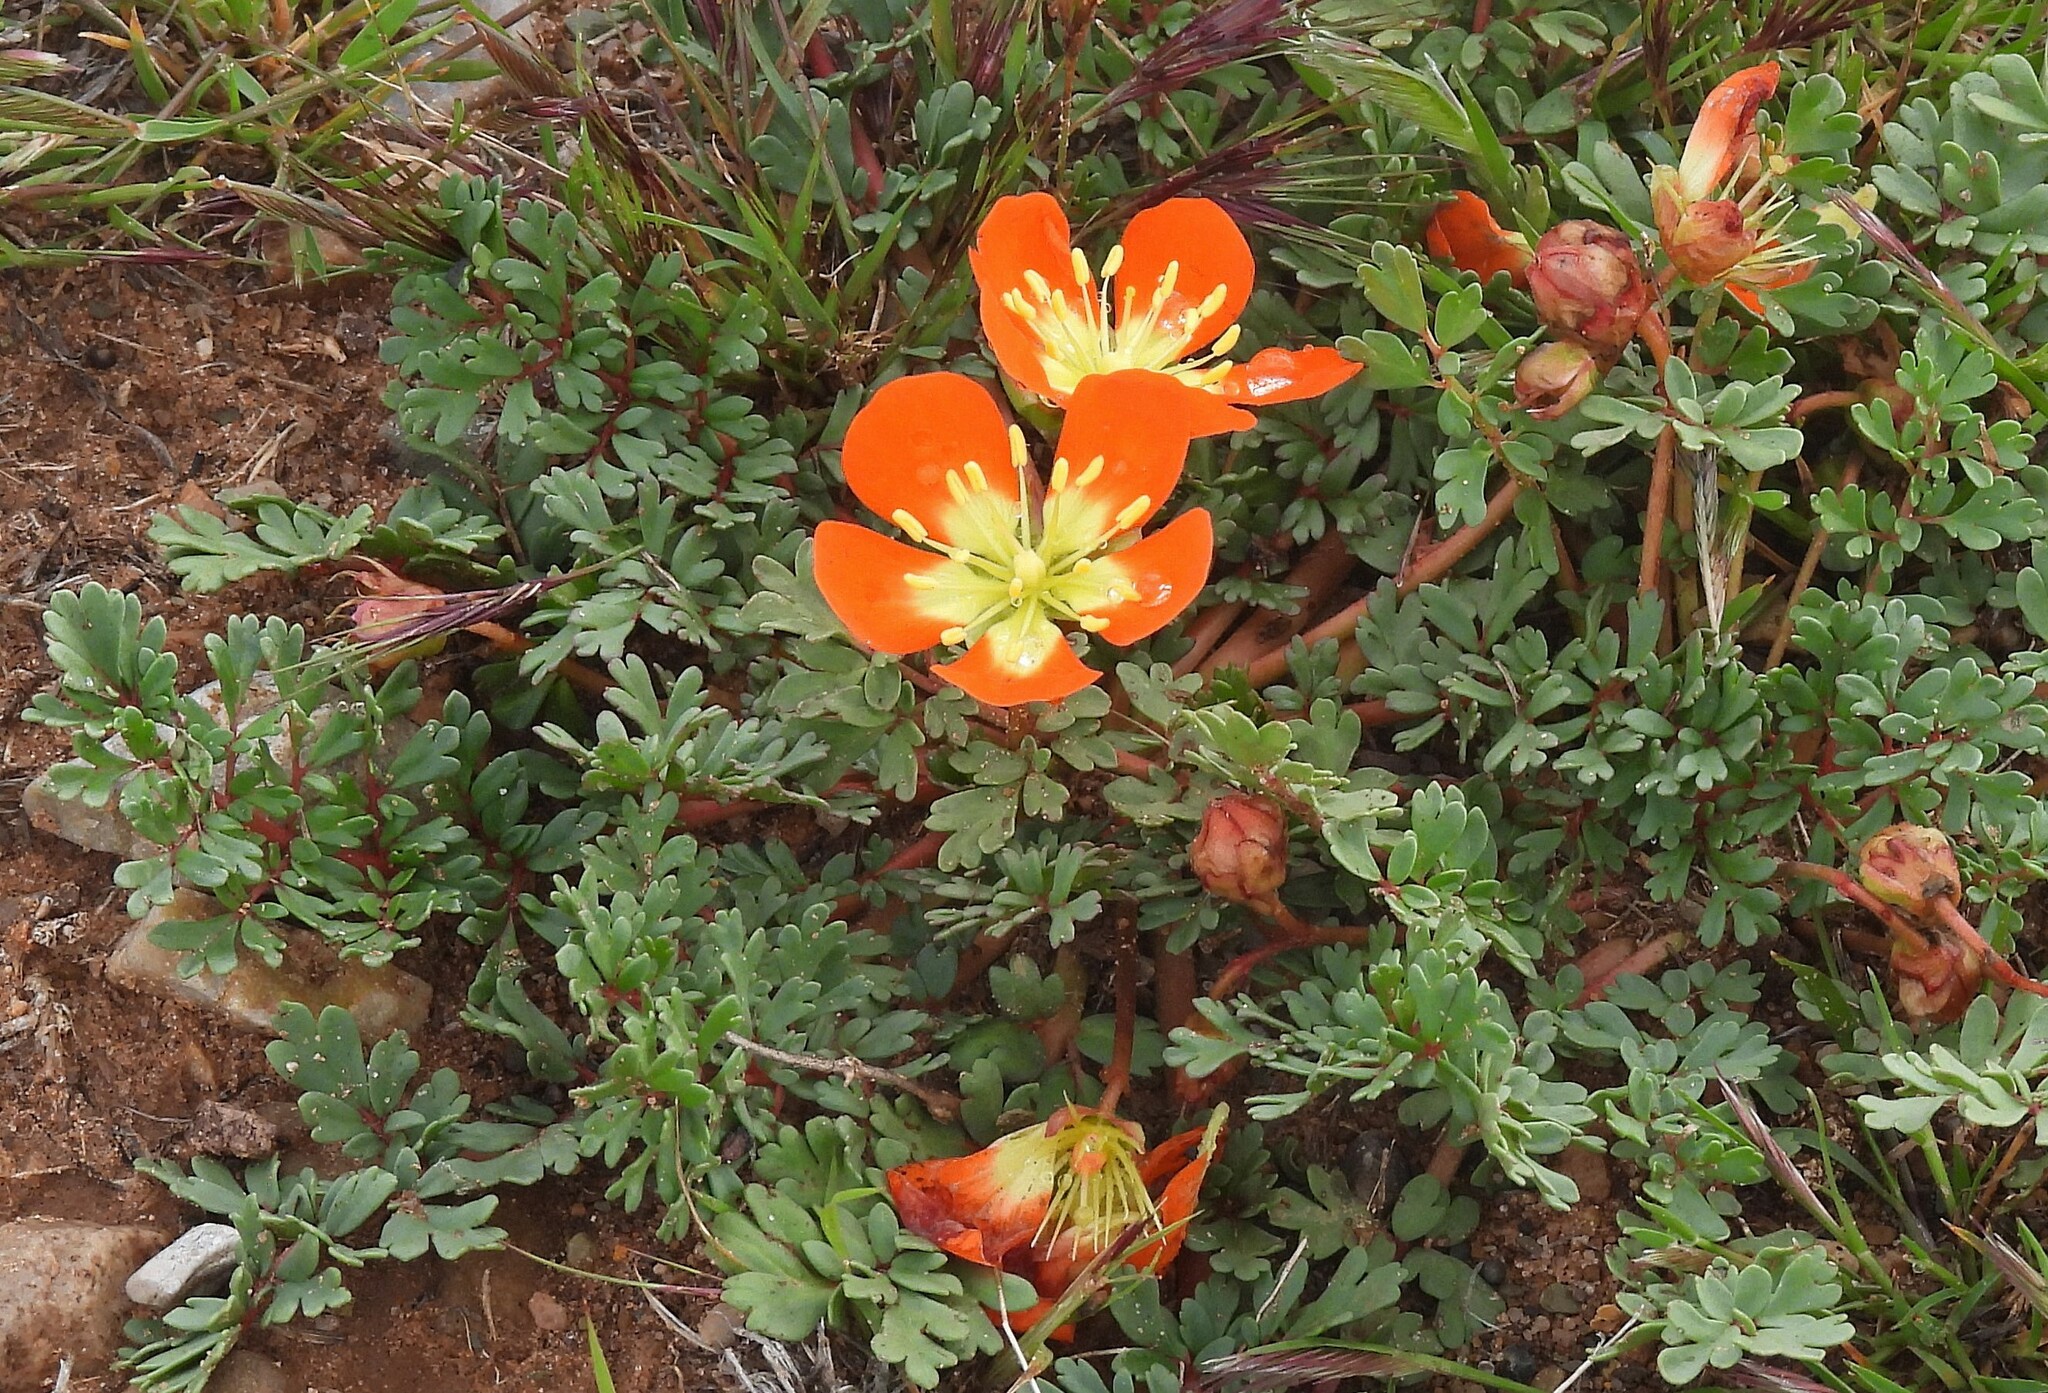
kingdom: Plantae
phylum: Tracheophyta
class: Magnoliopsida
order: Geraniales
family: Hypseocharitaceae
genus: Hypseocharis
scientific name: Hypseocharis pimpinellifolia
